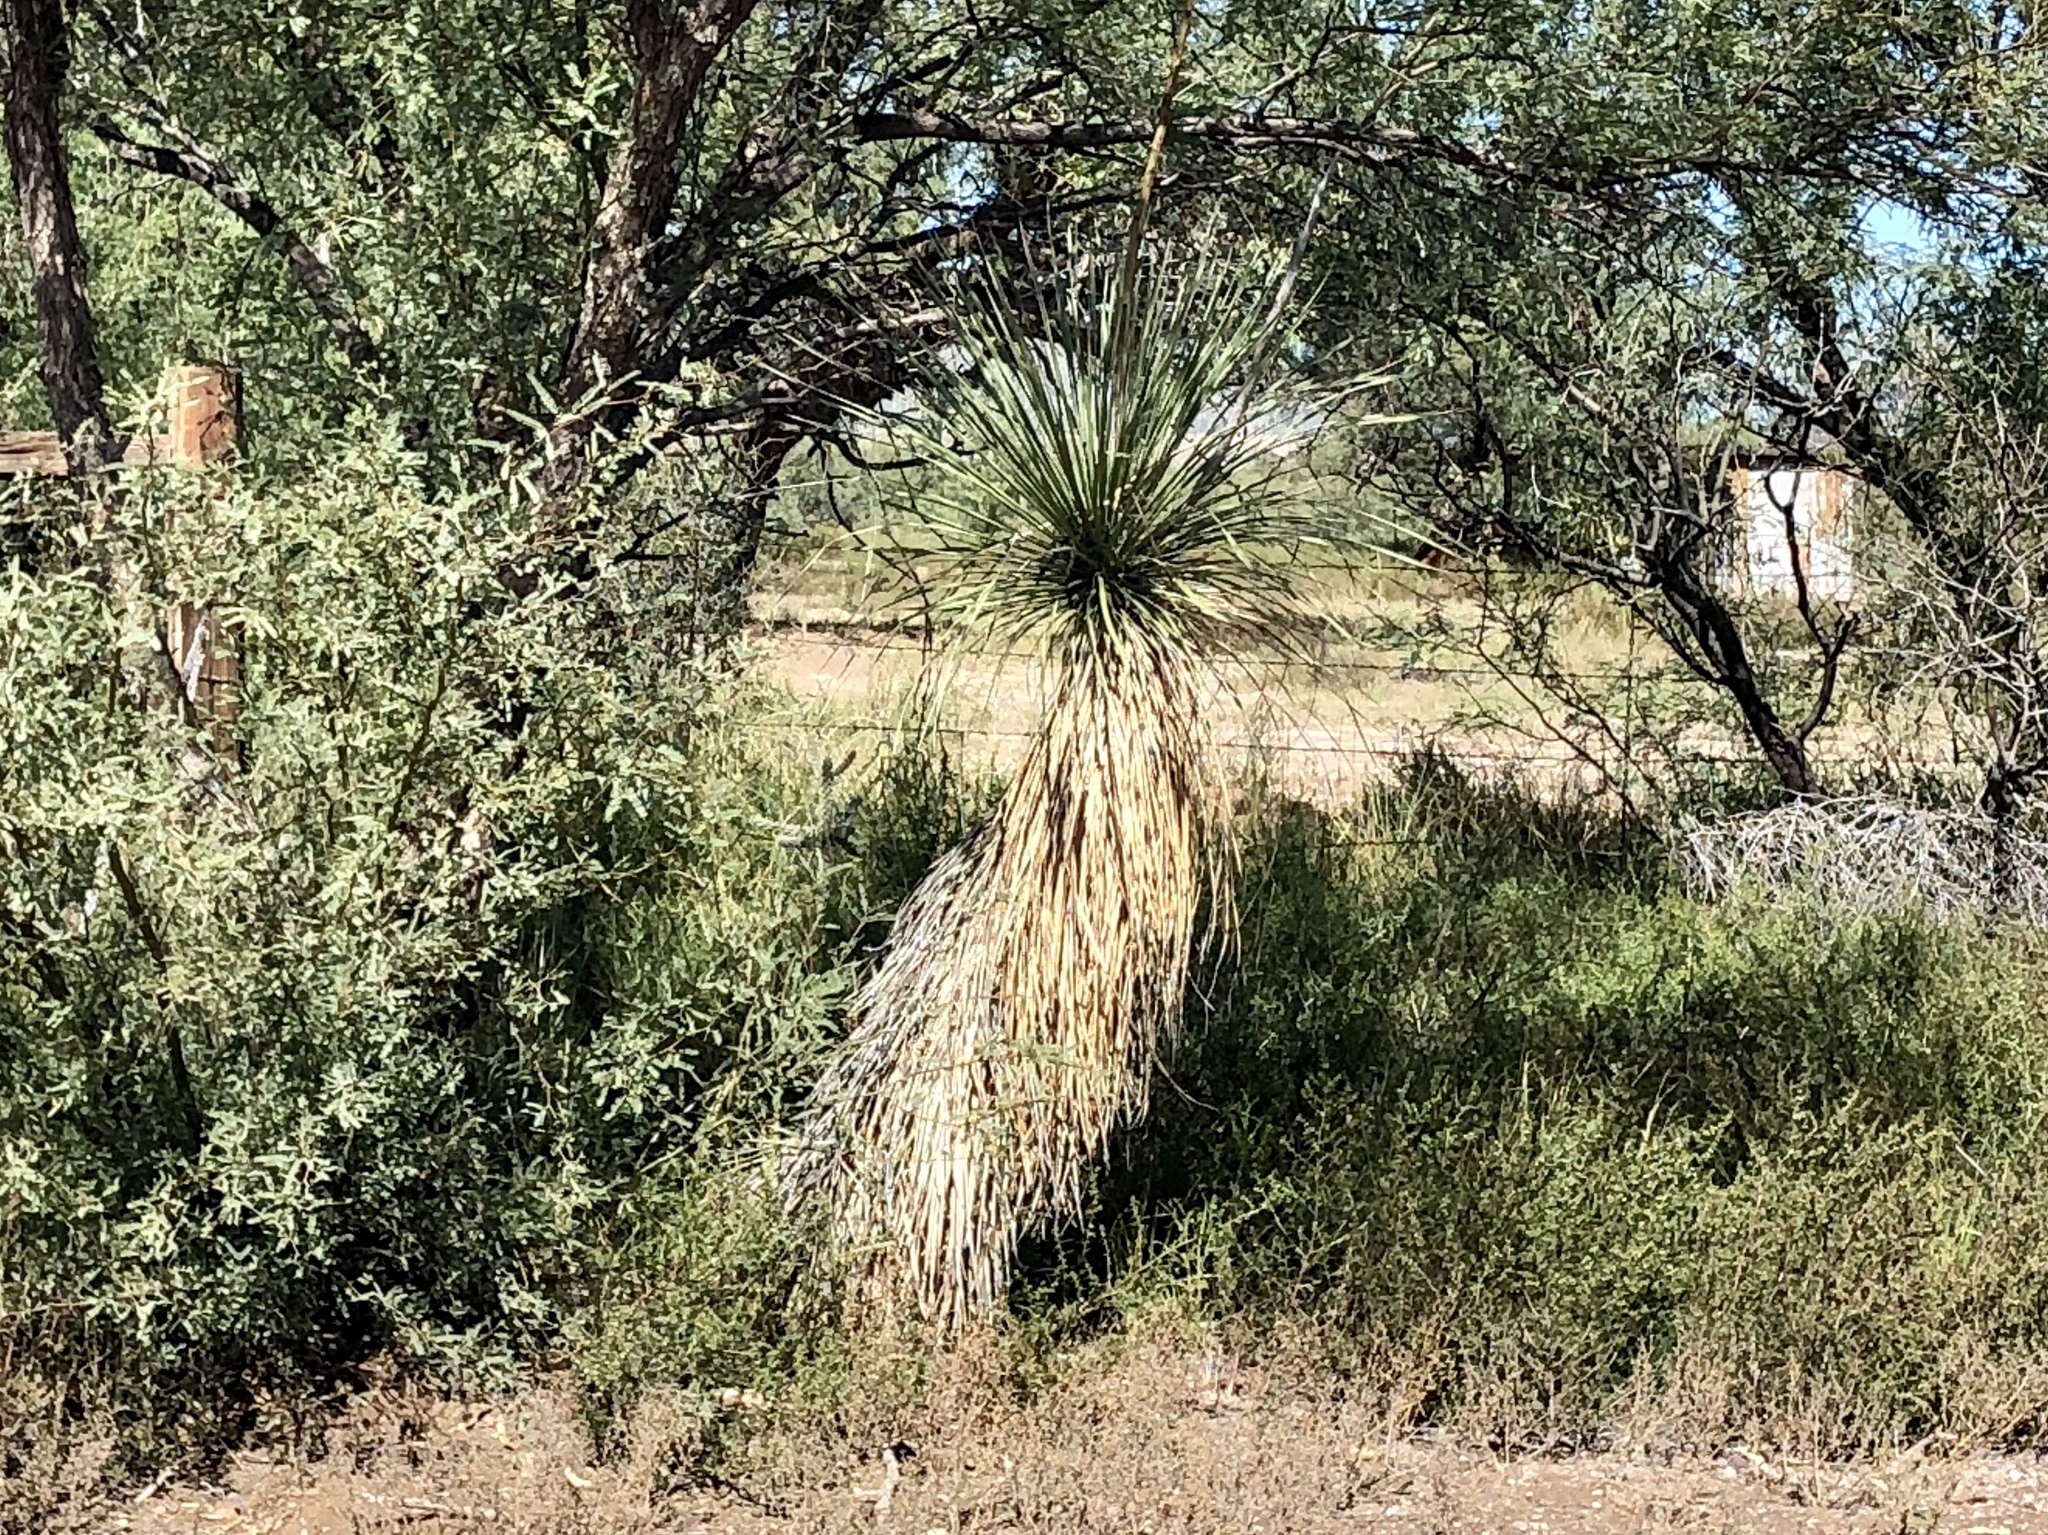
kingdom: Plantae
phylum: Tracheophyta
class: Liliopsida
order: Asparagales
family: Asparagaceae
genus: Yucca
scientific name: Yucca elata
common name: Palmella
